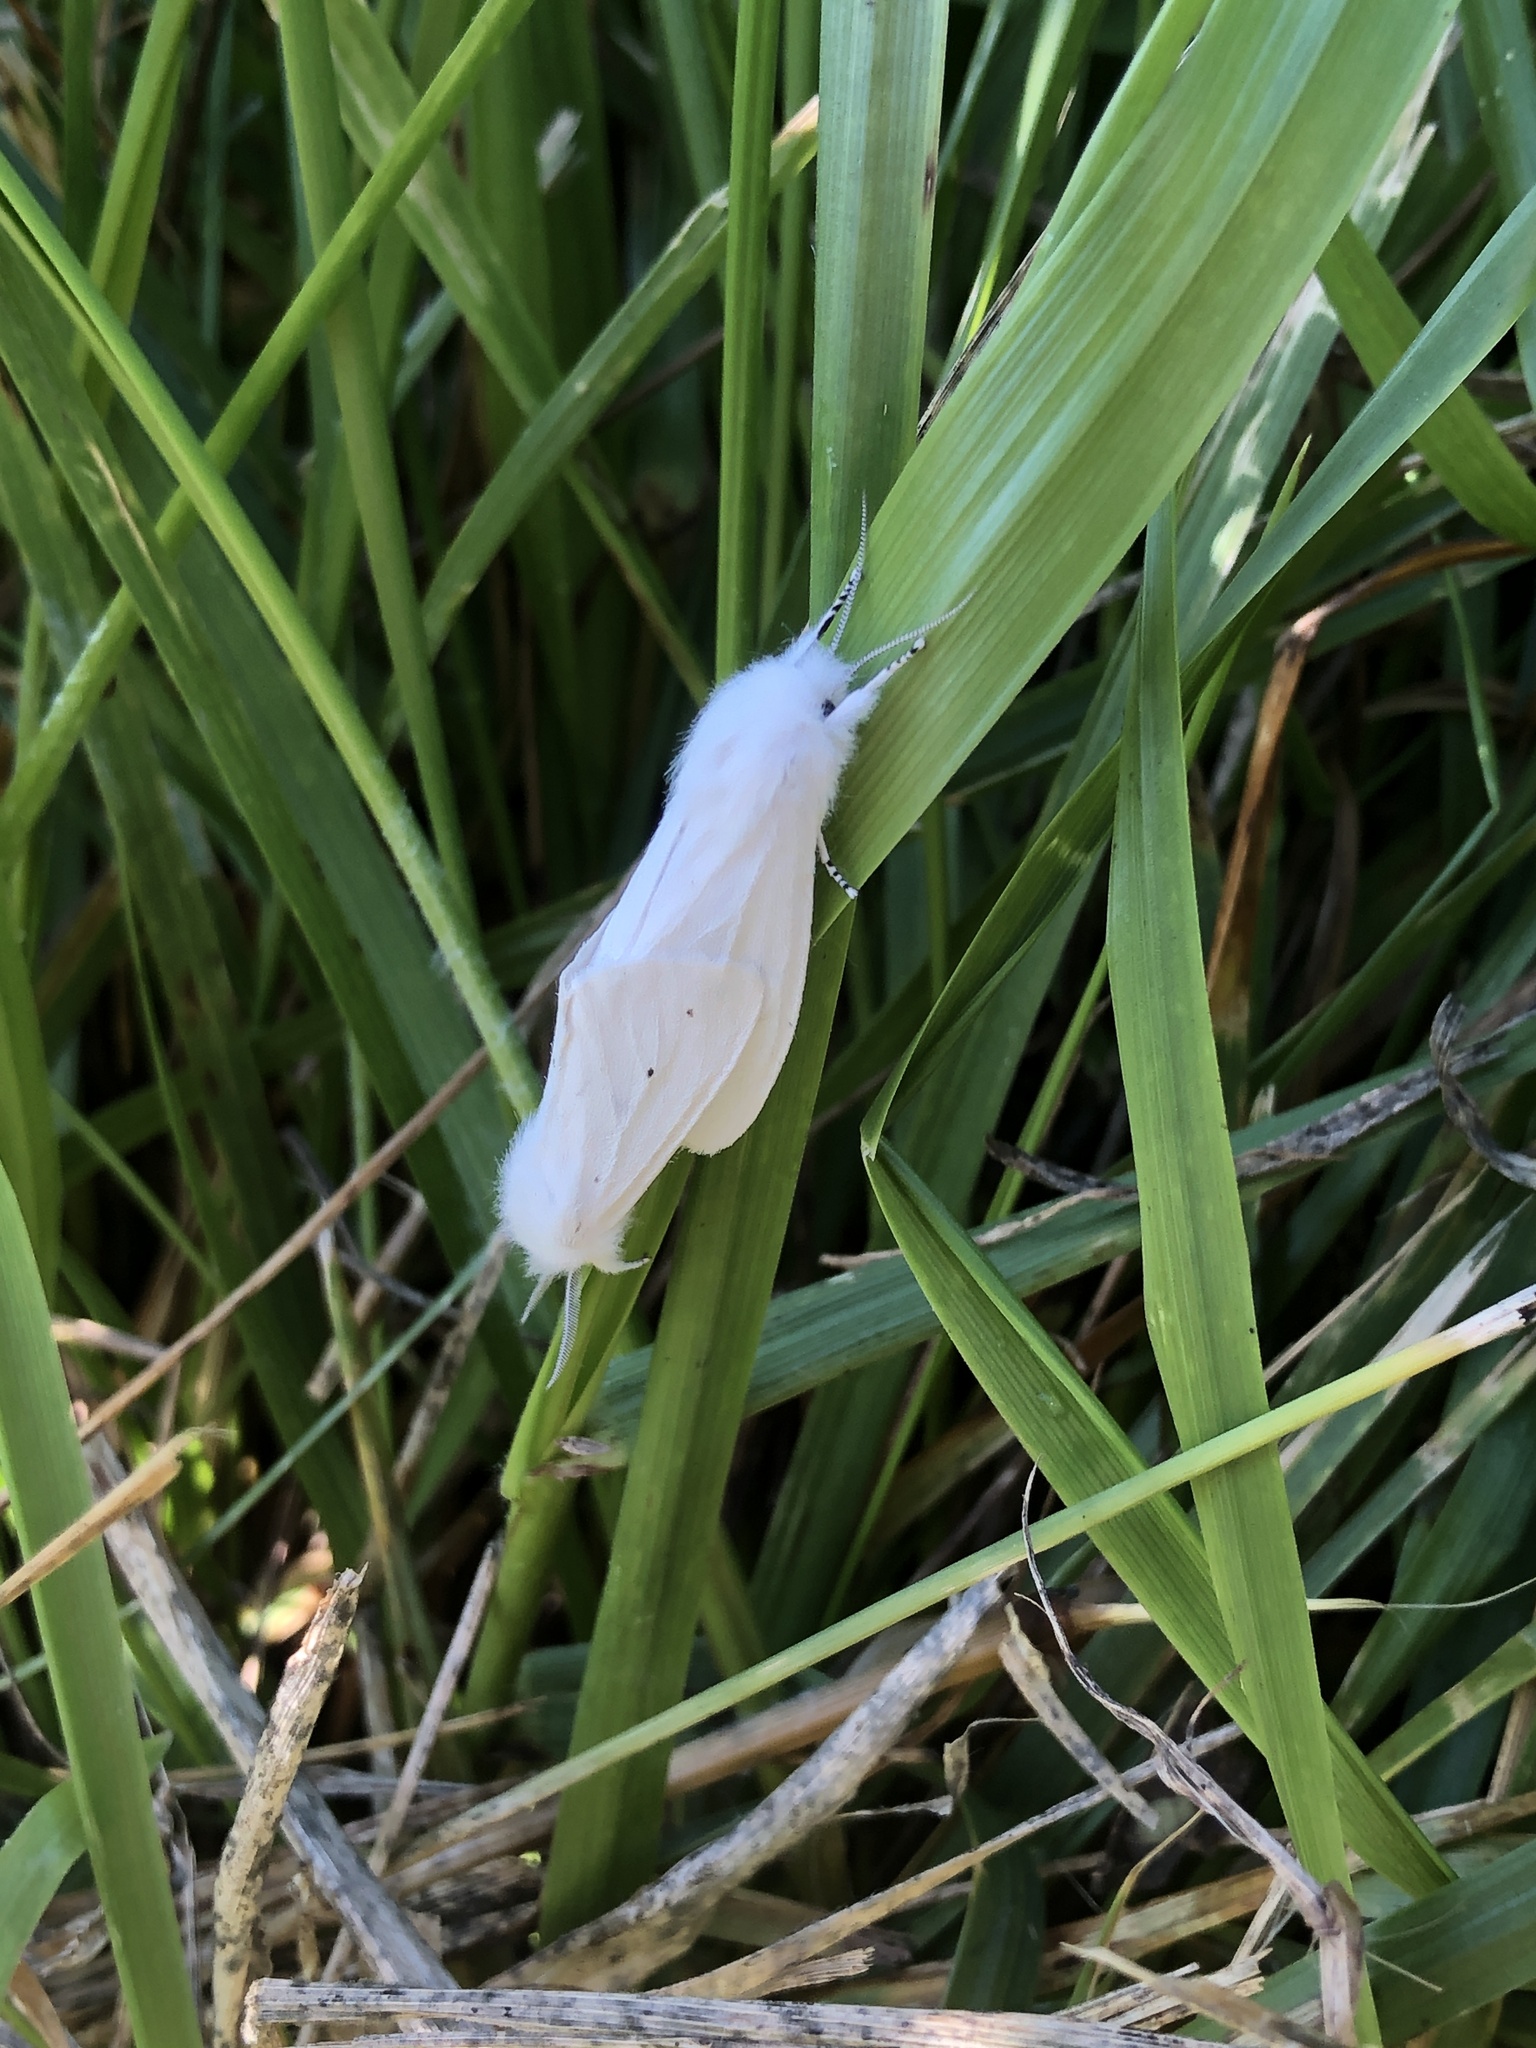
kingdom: Animalia
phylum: Arthropoda
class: Insecta
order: Lepidoptera
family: Erebidae
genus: Spilosoma
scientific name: Spilosoma virginica
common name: Virginia tiger moth
